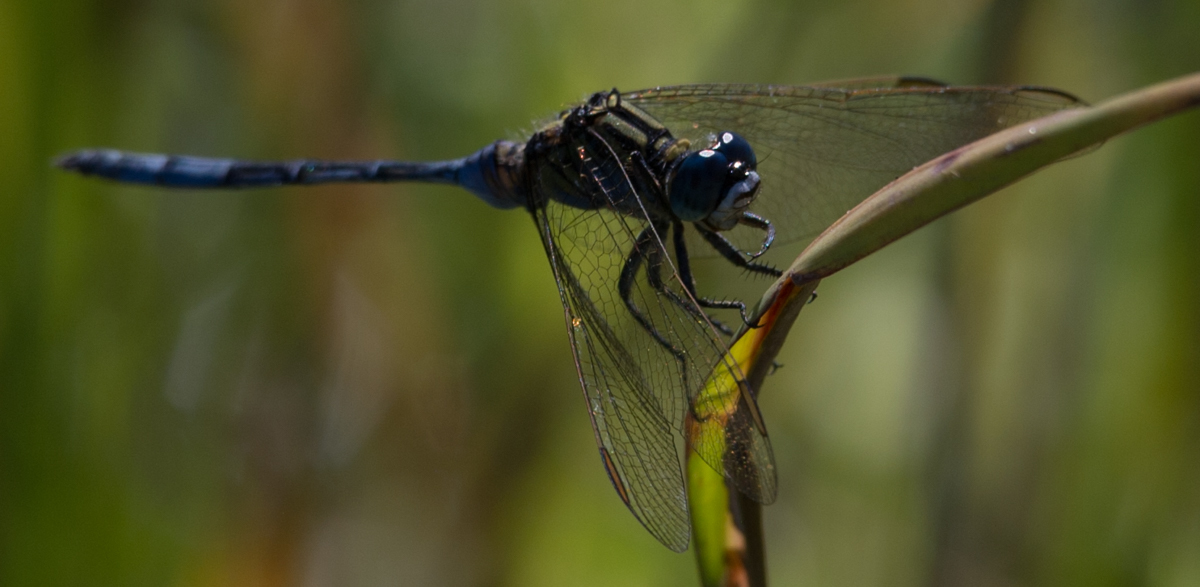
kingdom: Animalia
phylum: Arthropoda
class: Insecta
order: Odonata
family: Libellulidae
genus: Orthetrum
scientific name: Orthetrum icteromelas
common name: Spectacled skimmer
